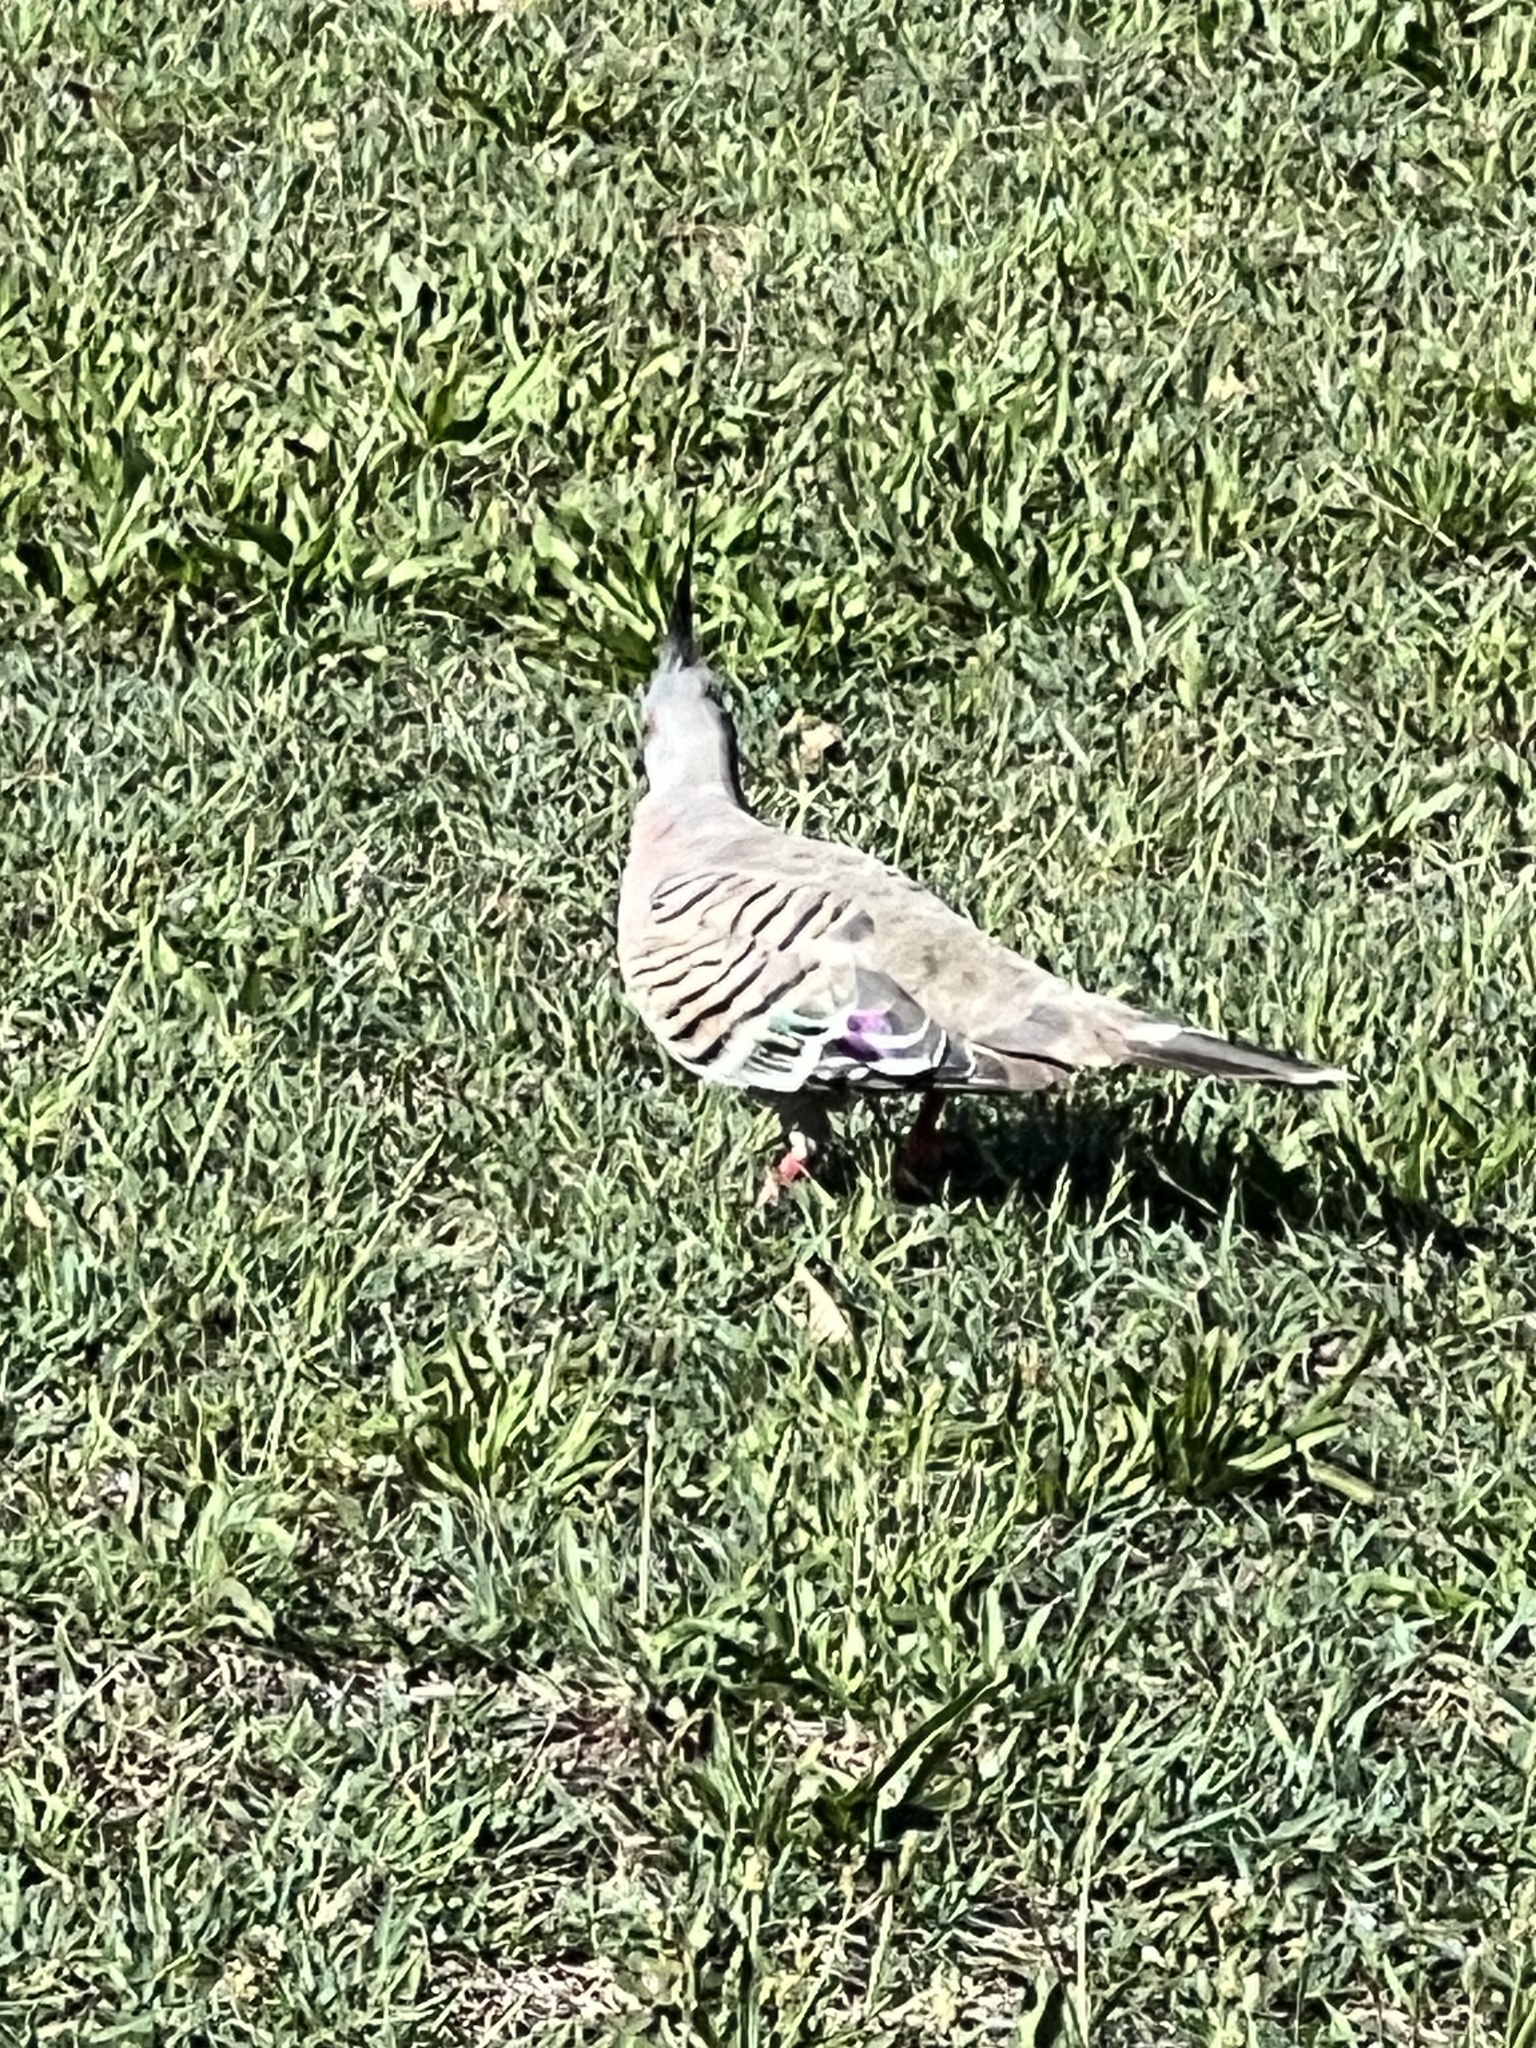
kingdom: Animalia
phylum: Chordata
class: Aves
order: Columbiformes
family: Columbidae
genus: Ocyphaps
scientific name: Ocyphaps lophotes
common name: Crested pigeon
